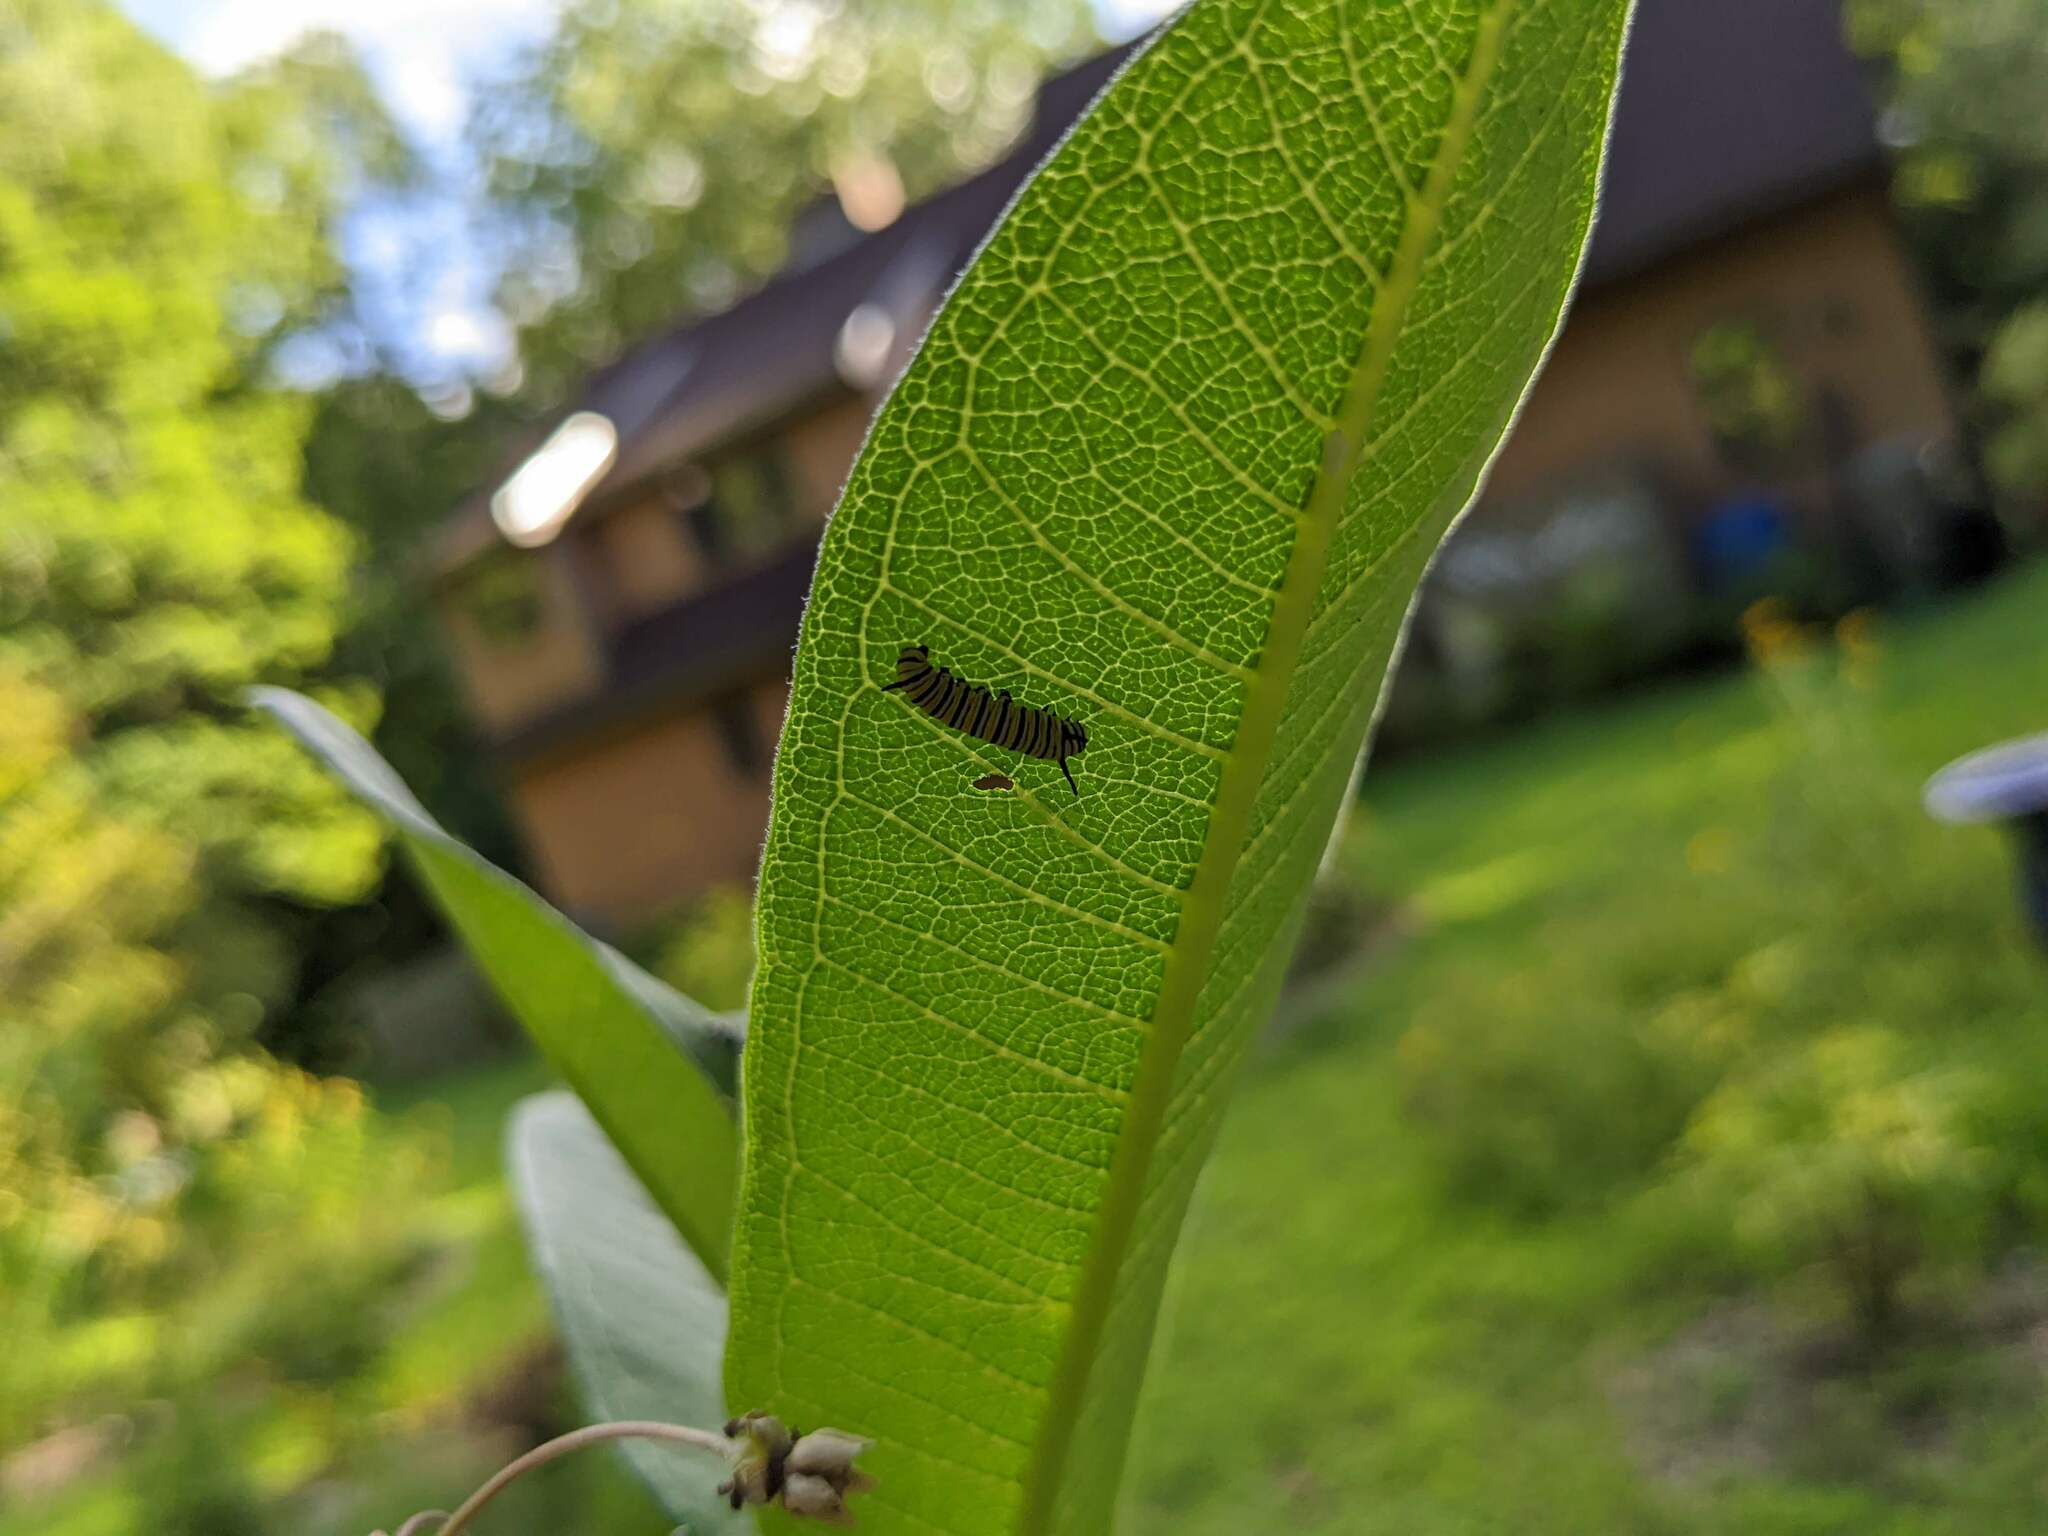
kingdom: Animalia
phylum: Arthropoda
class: Insecta
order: Lepidoptera
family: Nymphalidae
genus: Danaus
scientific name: Danaus plexippus
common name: Monarch
